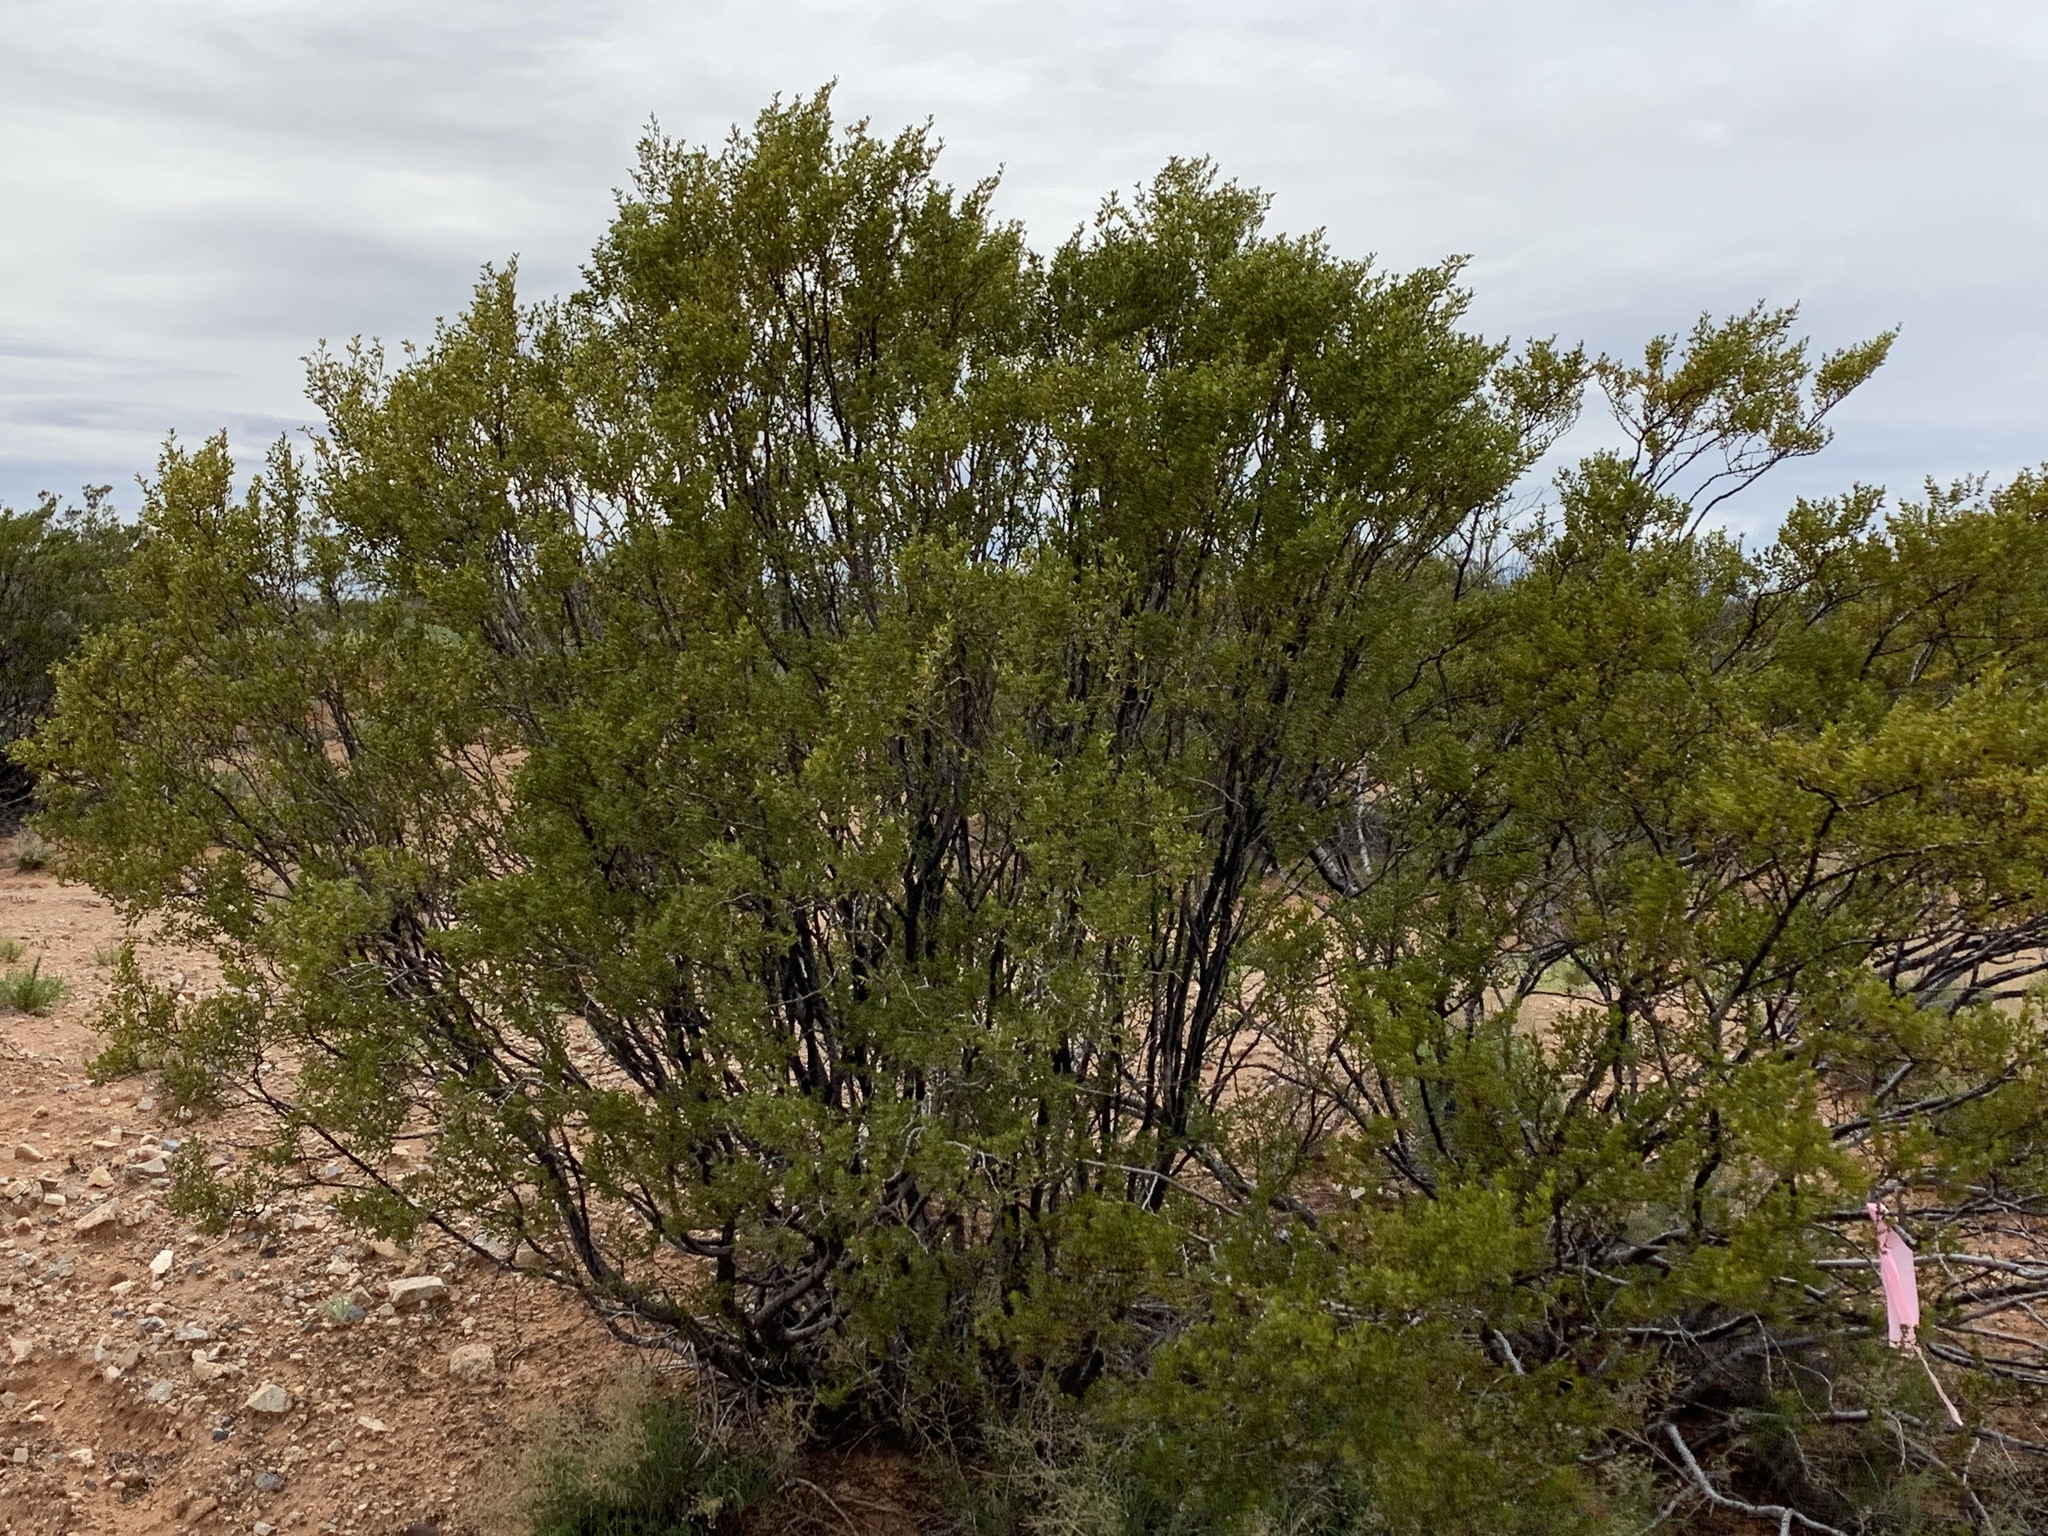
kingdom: Plantae
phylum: Tracheophyta
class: Magnoliopsida
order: Zygophyllales
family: Zygophyllaceae
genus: Larrea
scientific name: Larrea tridentata
